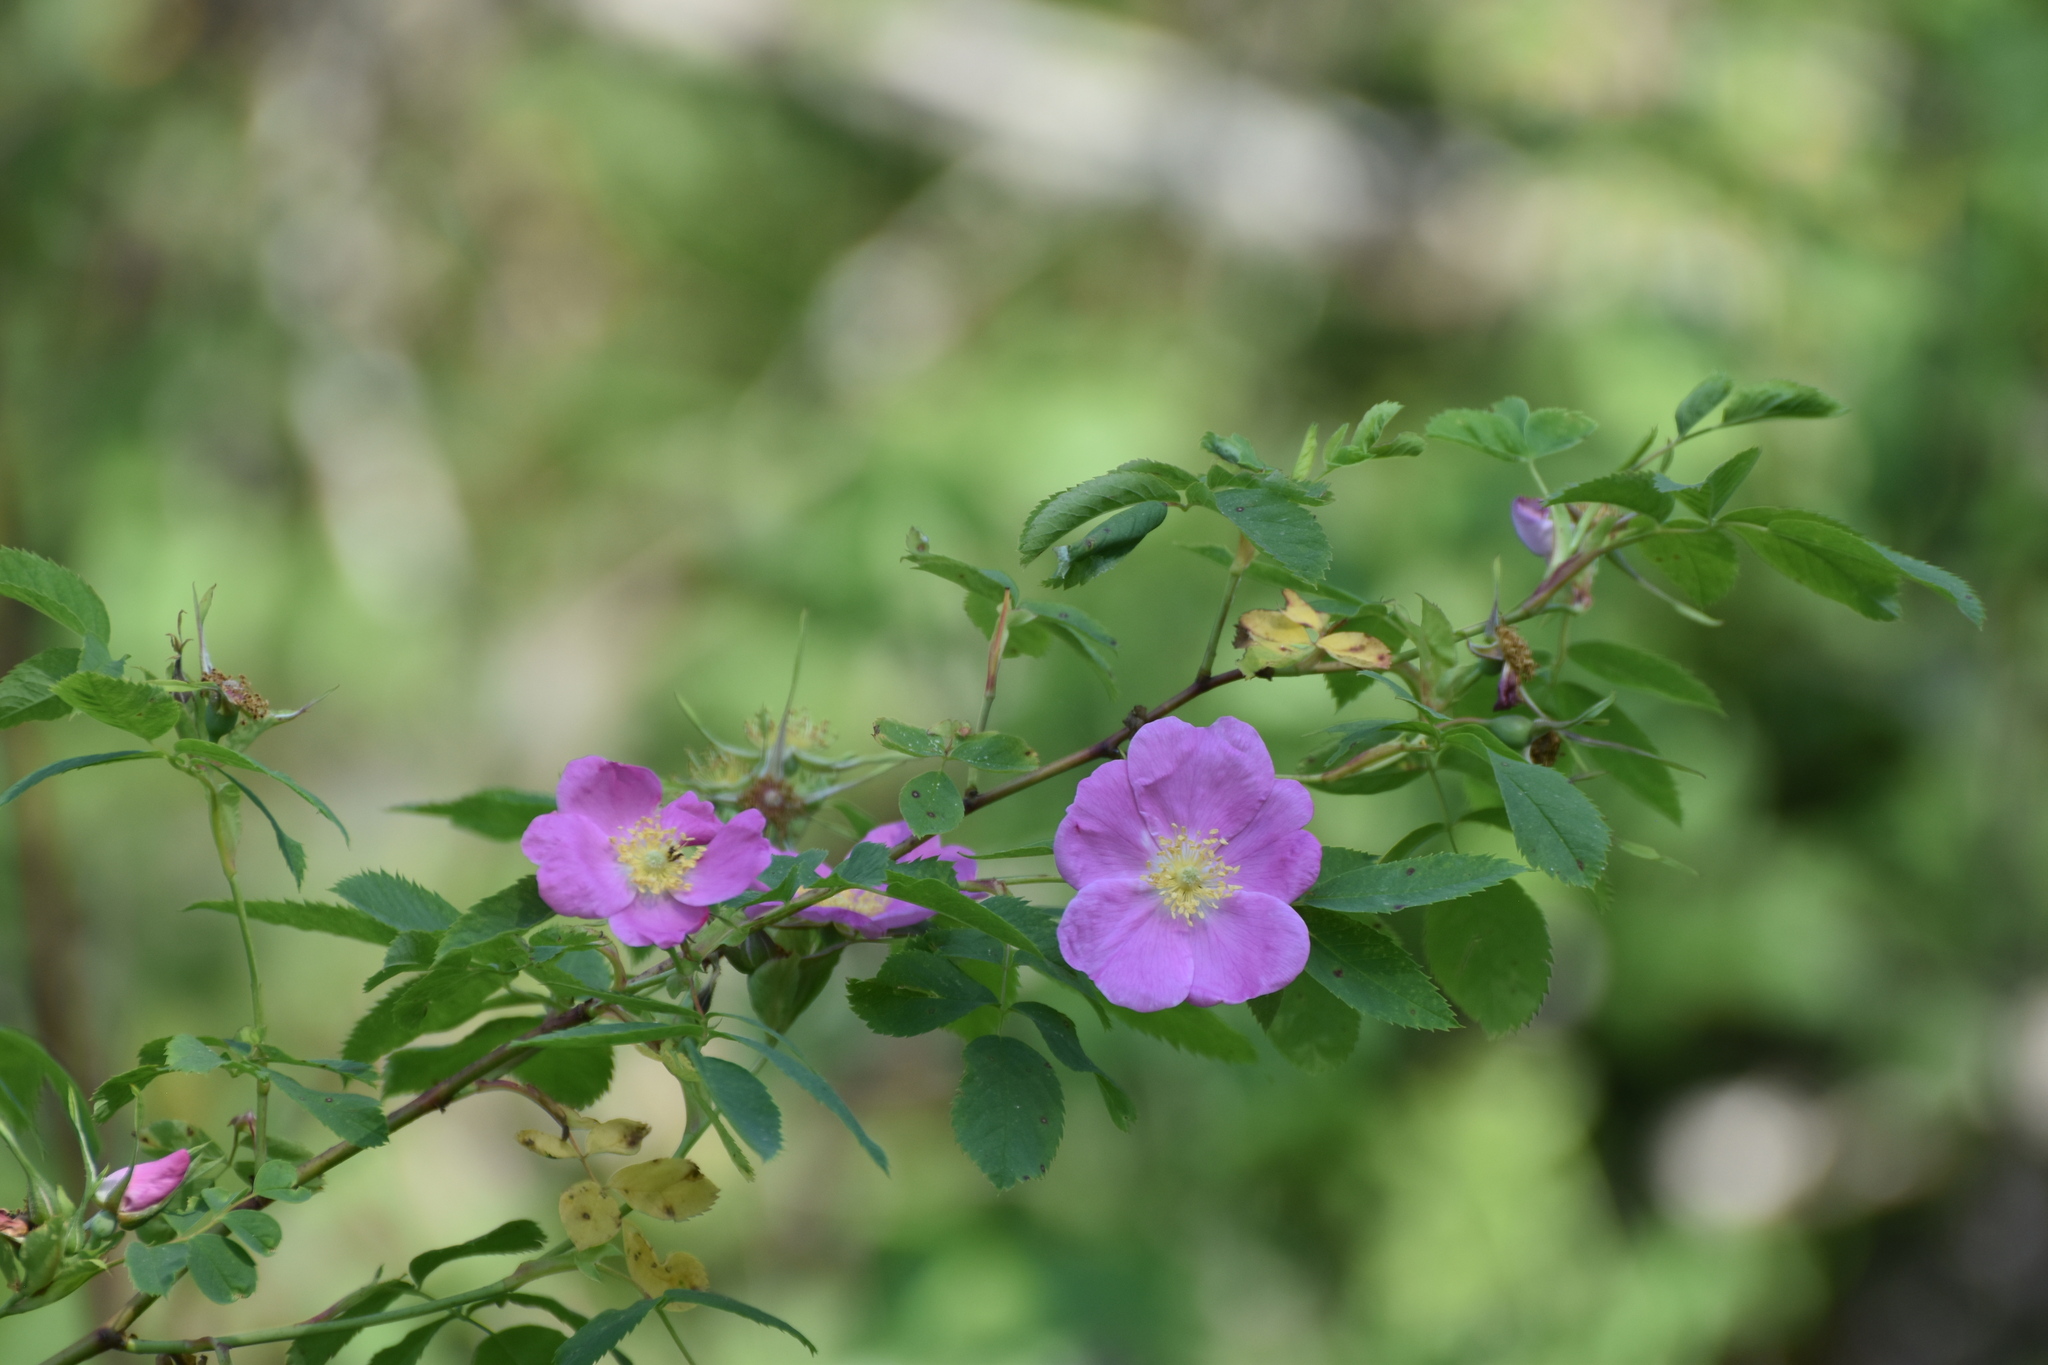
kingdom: Plantae
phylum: Tracheophyta
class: Magnoliopsida
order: Rosales
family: Rosaceae
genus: Rosa
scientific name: Rosa majalis
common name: Cinnamon rose
